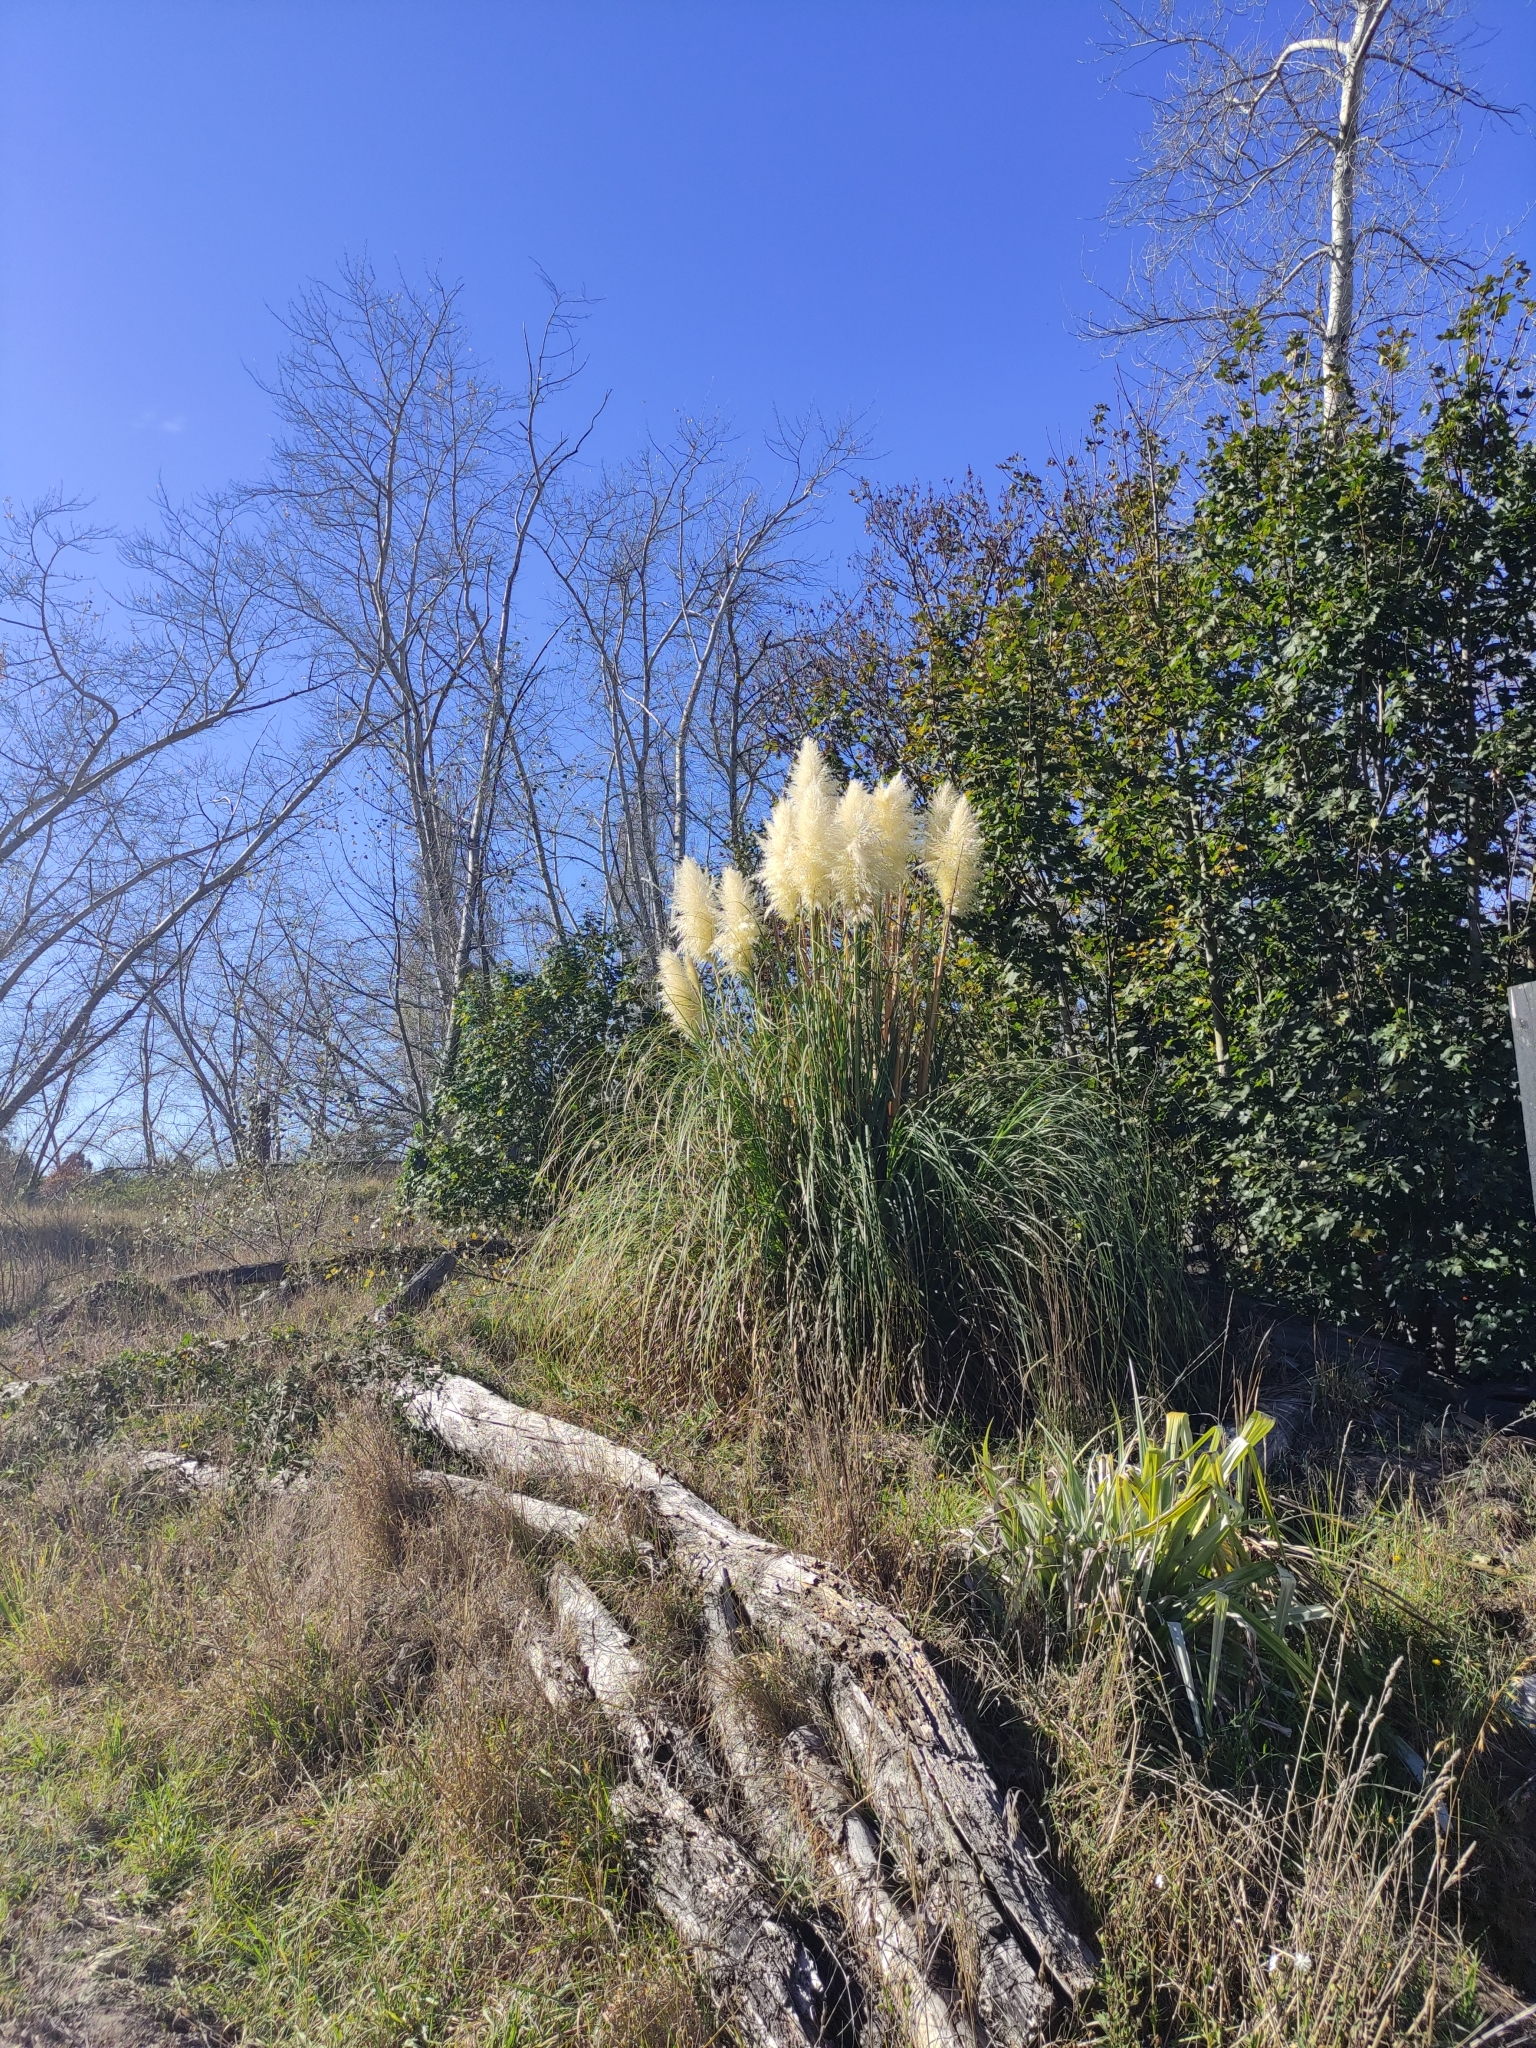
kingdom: Plantae
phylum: Tracheophyta
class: Liliopsida
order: Poales
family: Poaceae
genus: Cortaderia
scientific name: Cortaderia selloana
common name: Uruguayan pampas grass
